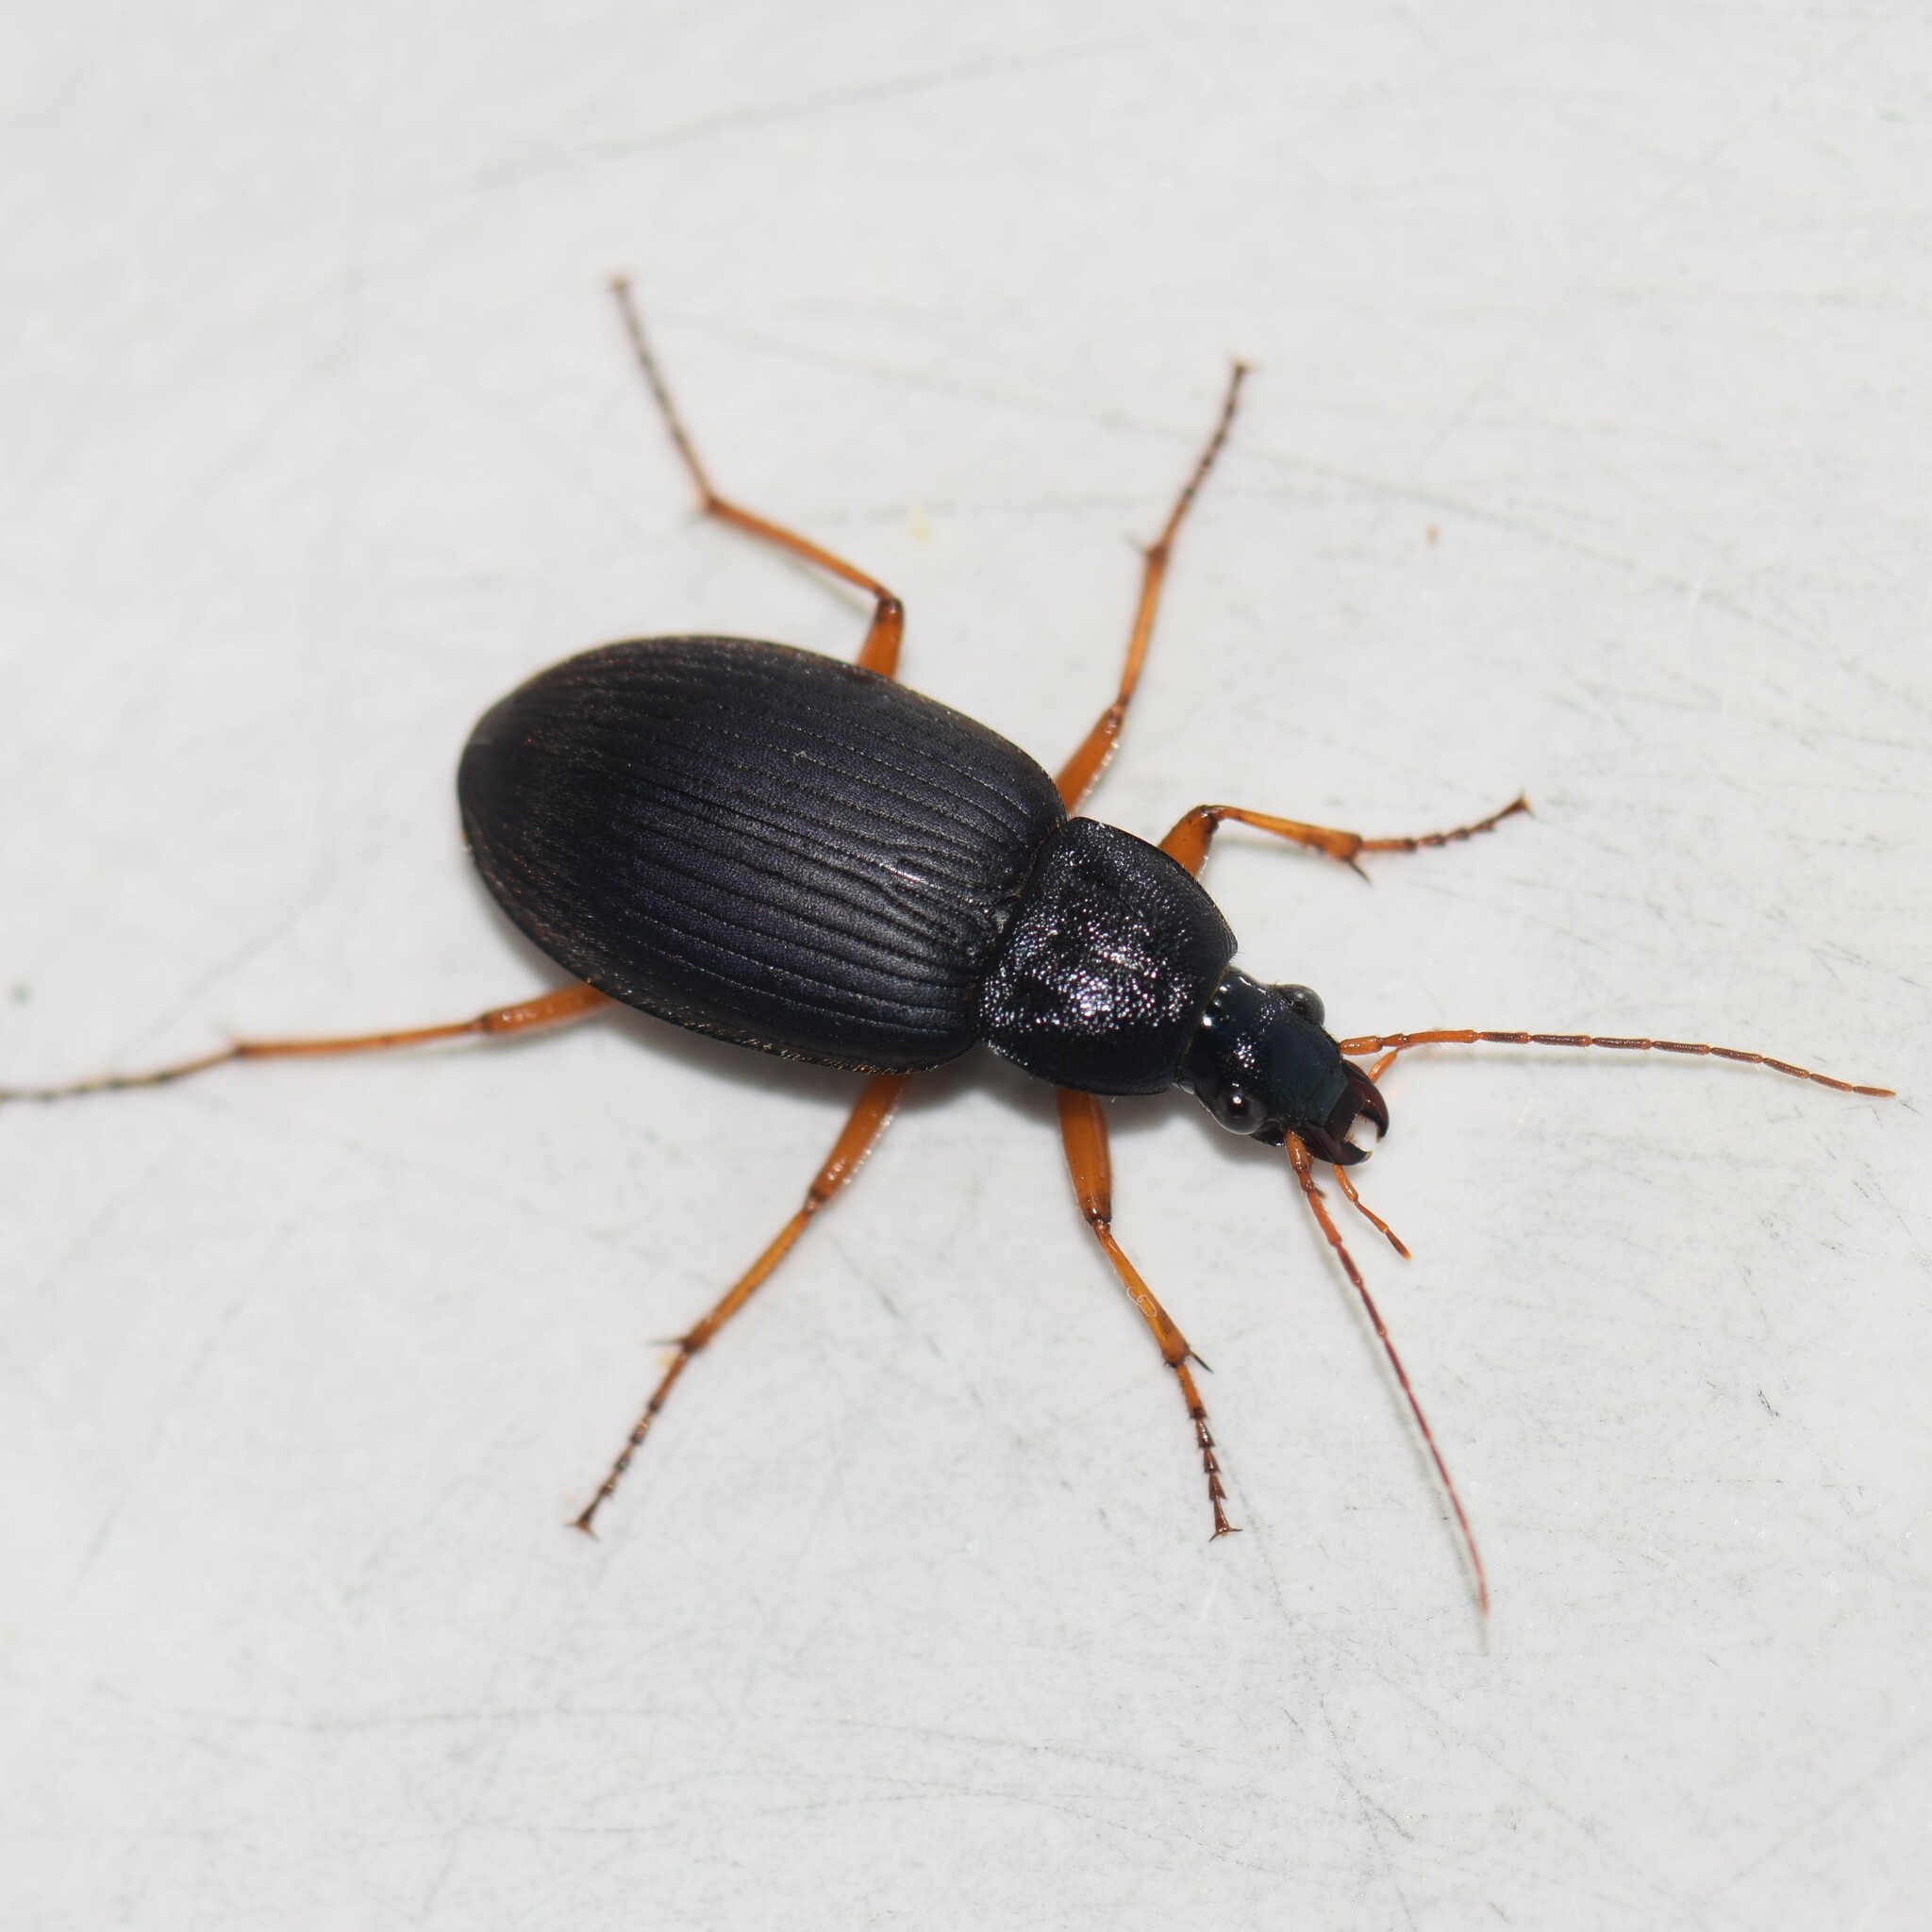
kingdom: Animalia
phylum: Arthropoda
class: Insecta
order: Coleoptera
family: Carabidae
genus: Chlaenius
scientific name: Chlaenius erythropus
